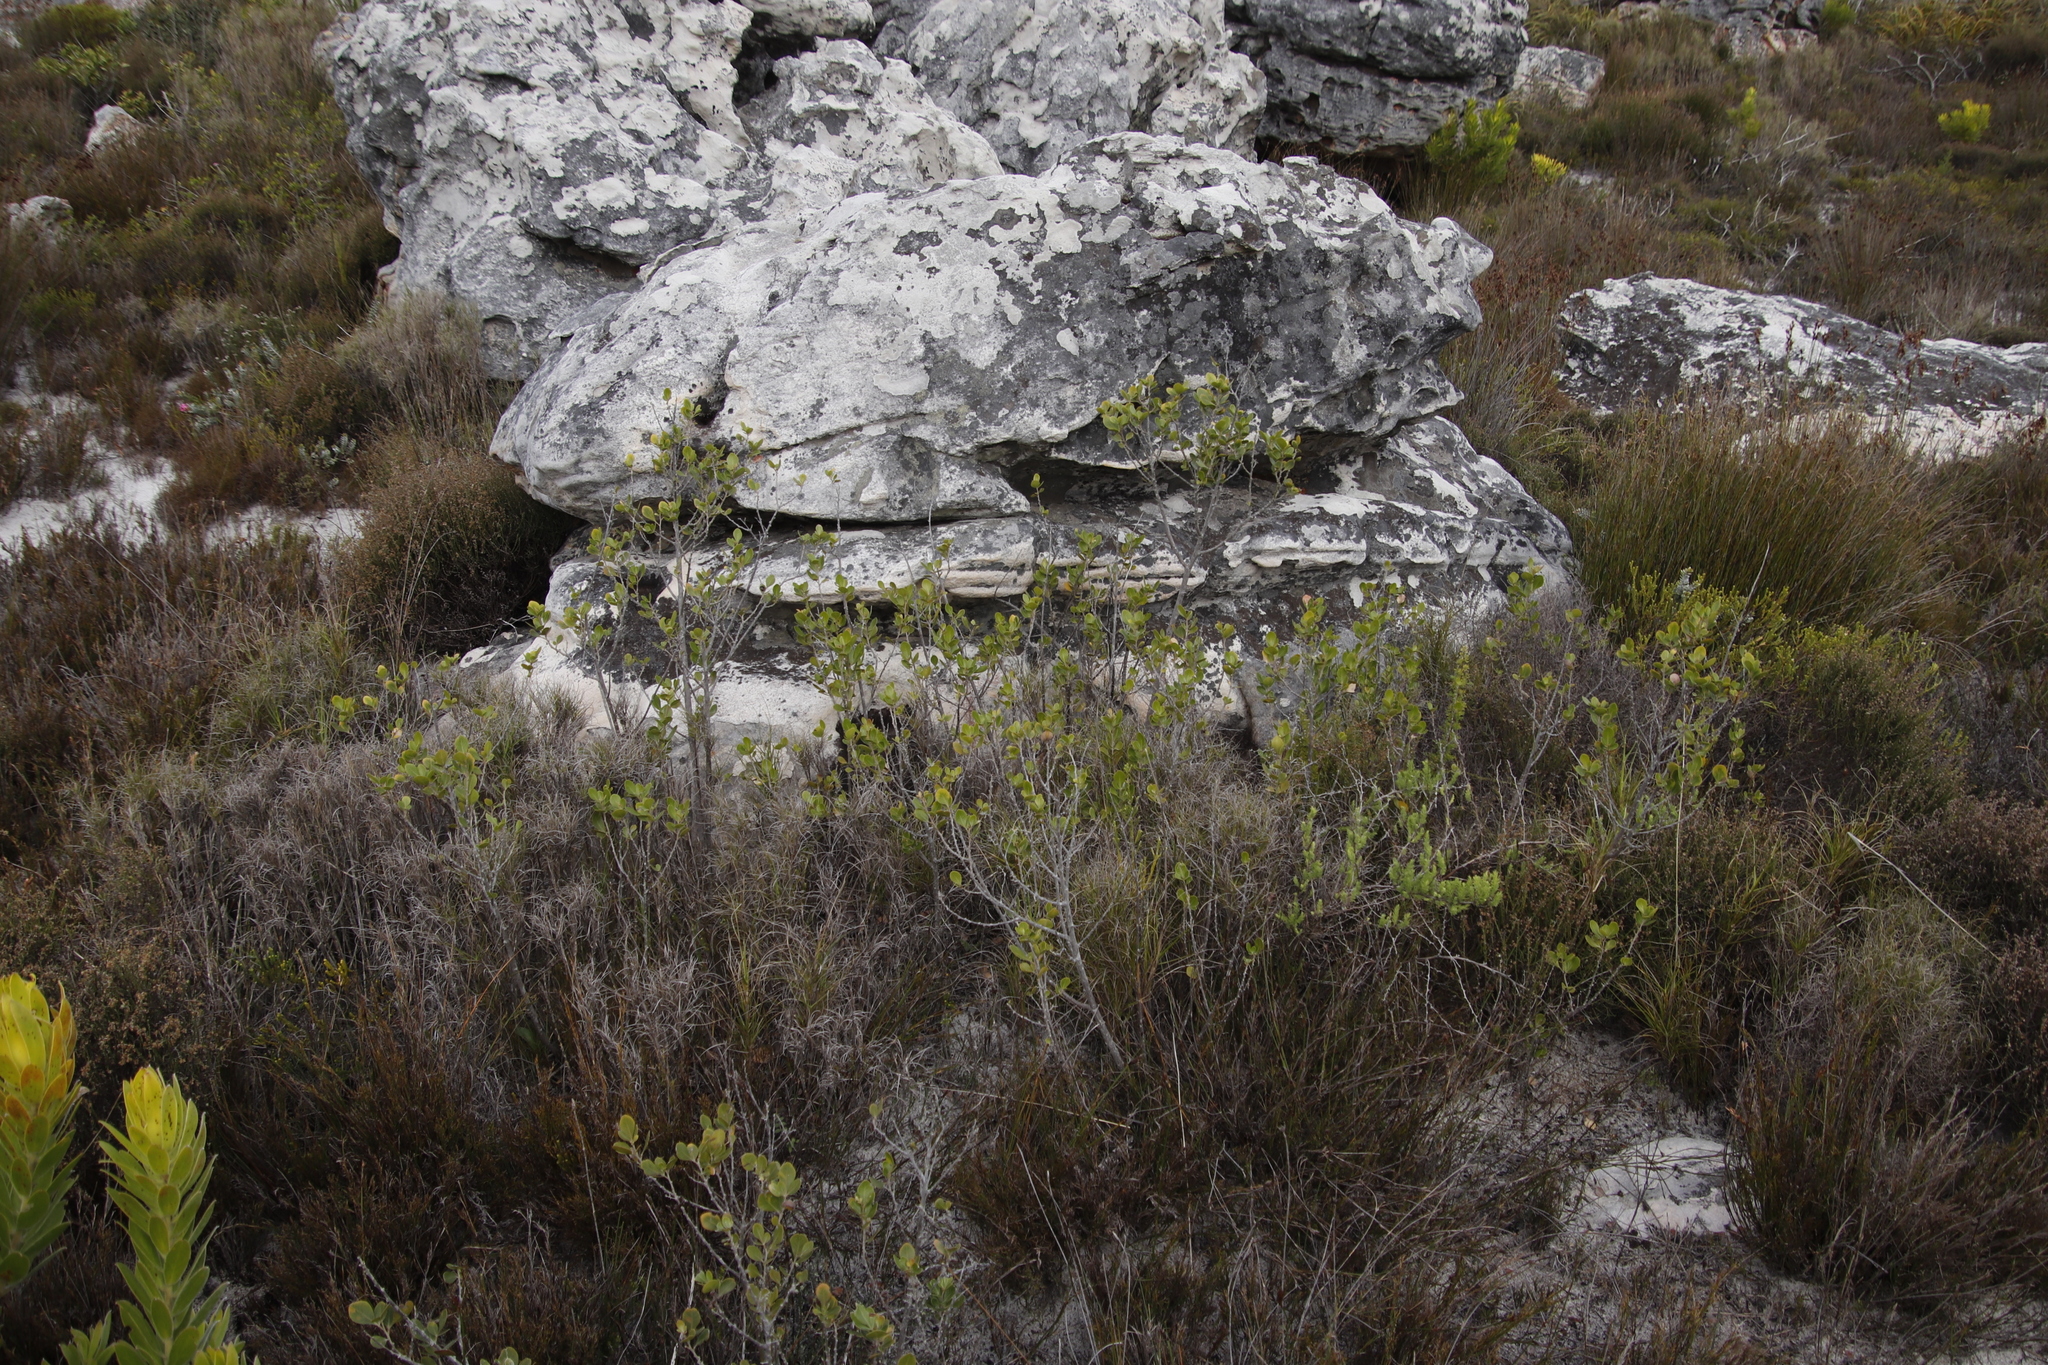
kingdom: Plantae
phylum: Tracheophyta
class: Magnoliopsida
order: Sapindales
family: Anacardiaceae
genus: Searsia
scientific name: Searsia lucida
